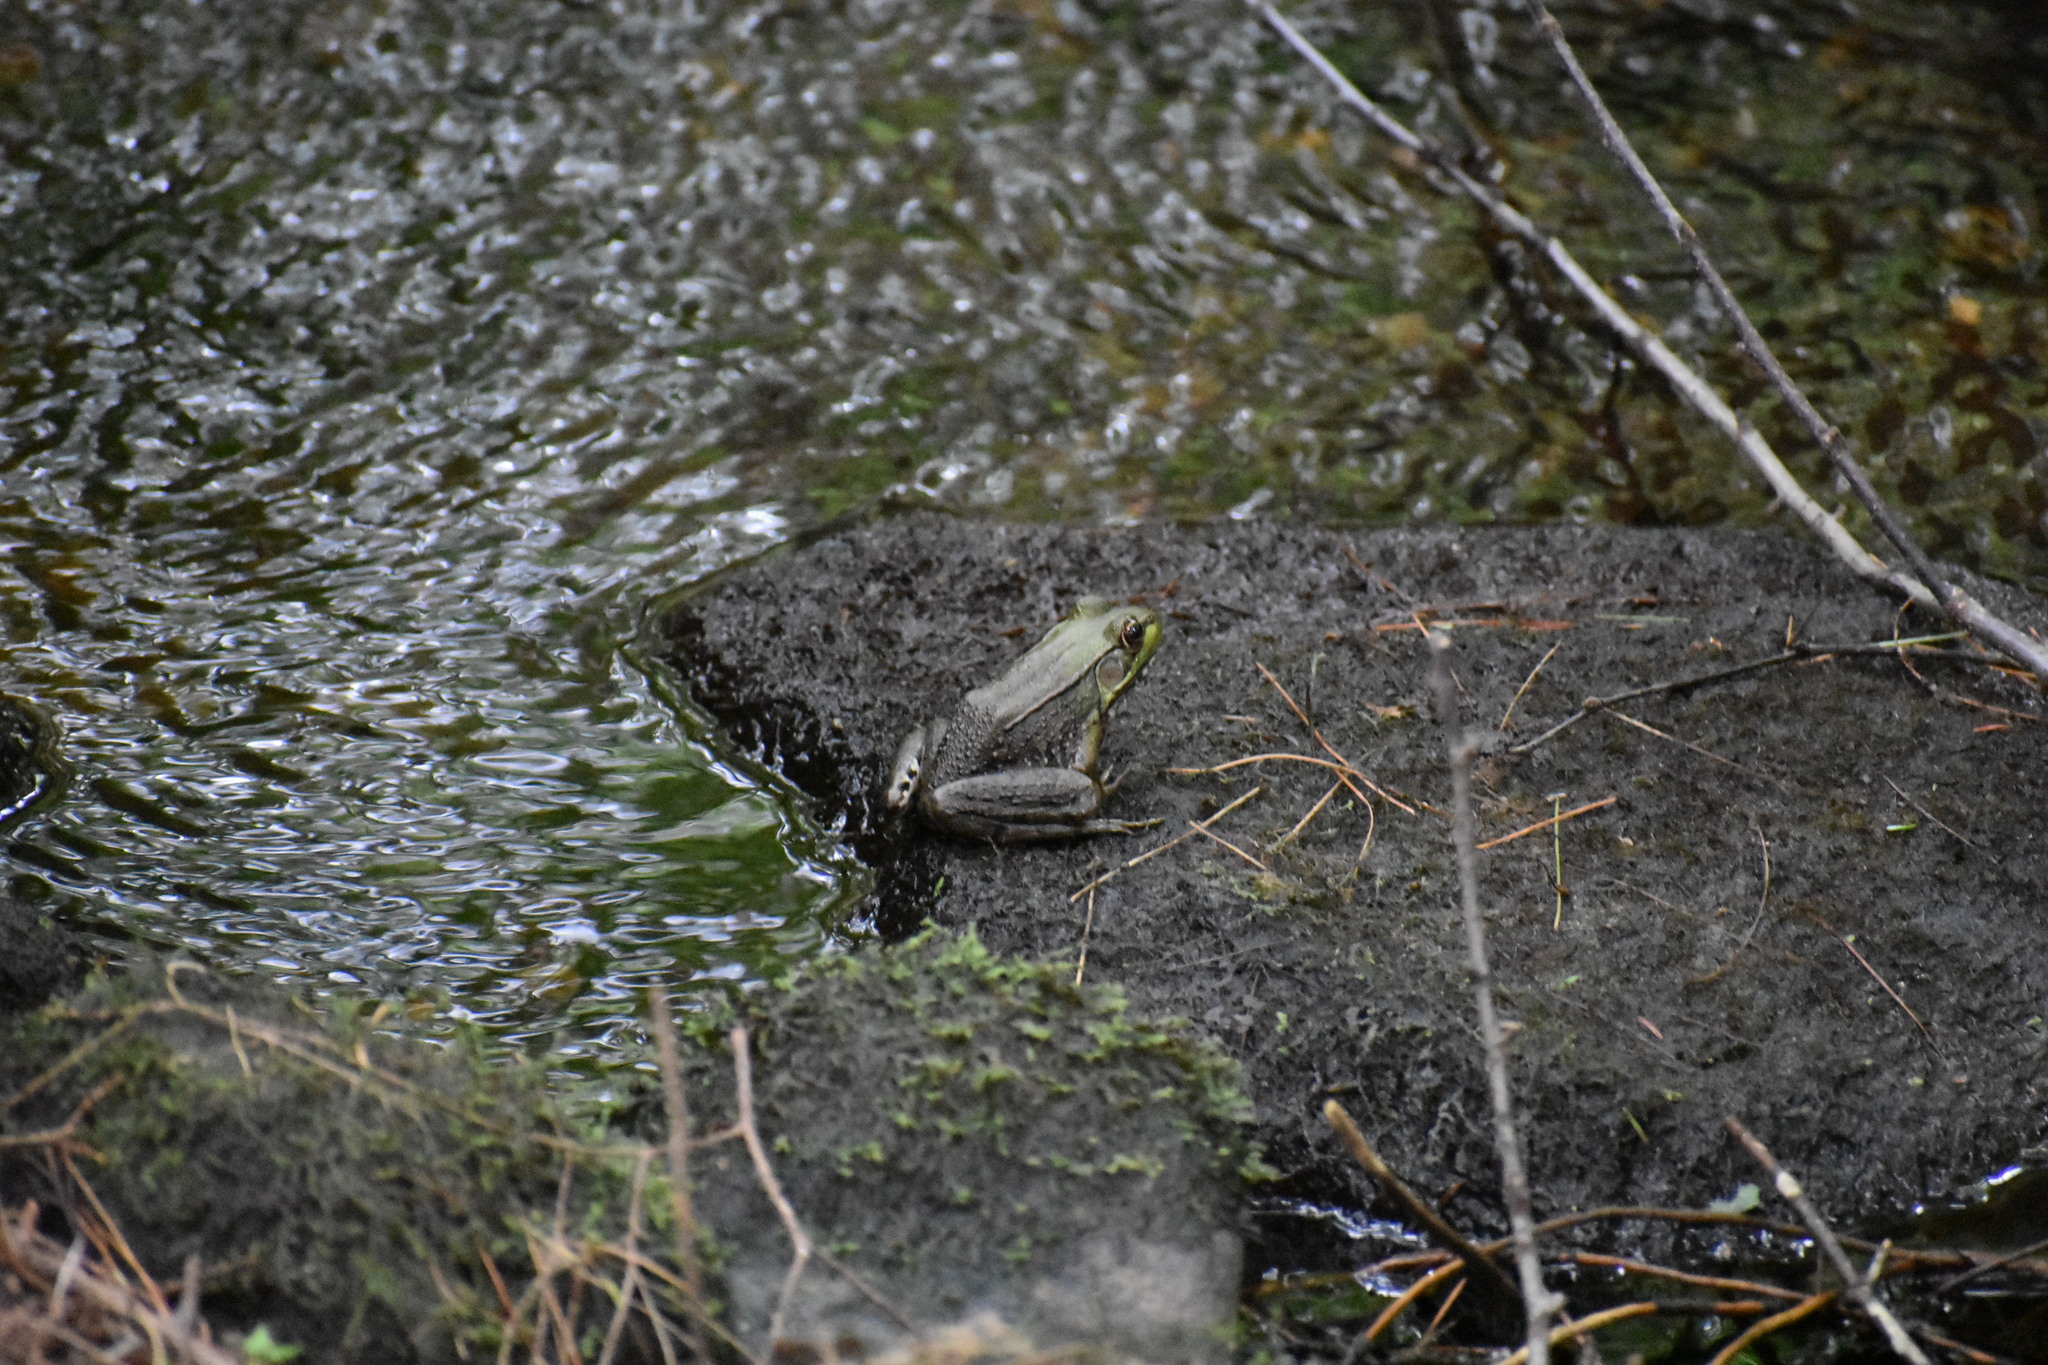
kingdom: Animalia
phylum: Chordata
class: Amphibia
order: Anura
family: Ranidae
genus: Lithobates
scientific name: Lithobates clamitans
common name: Green frog
